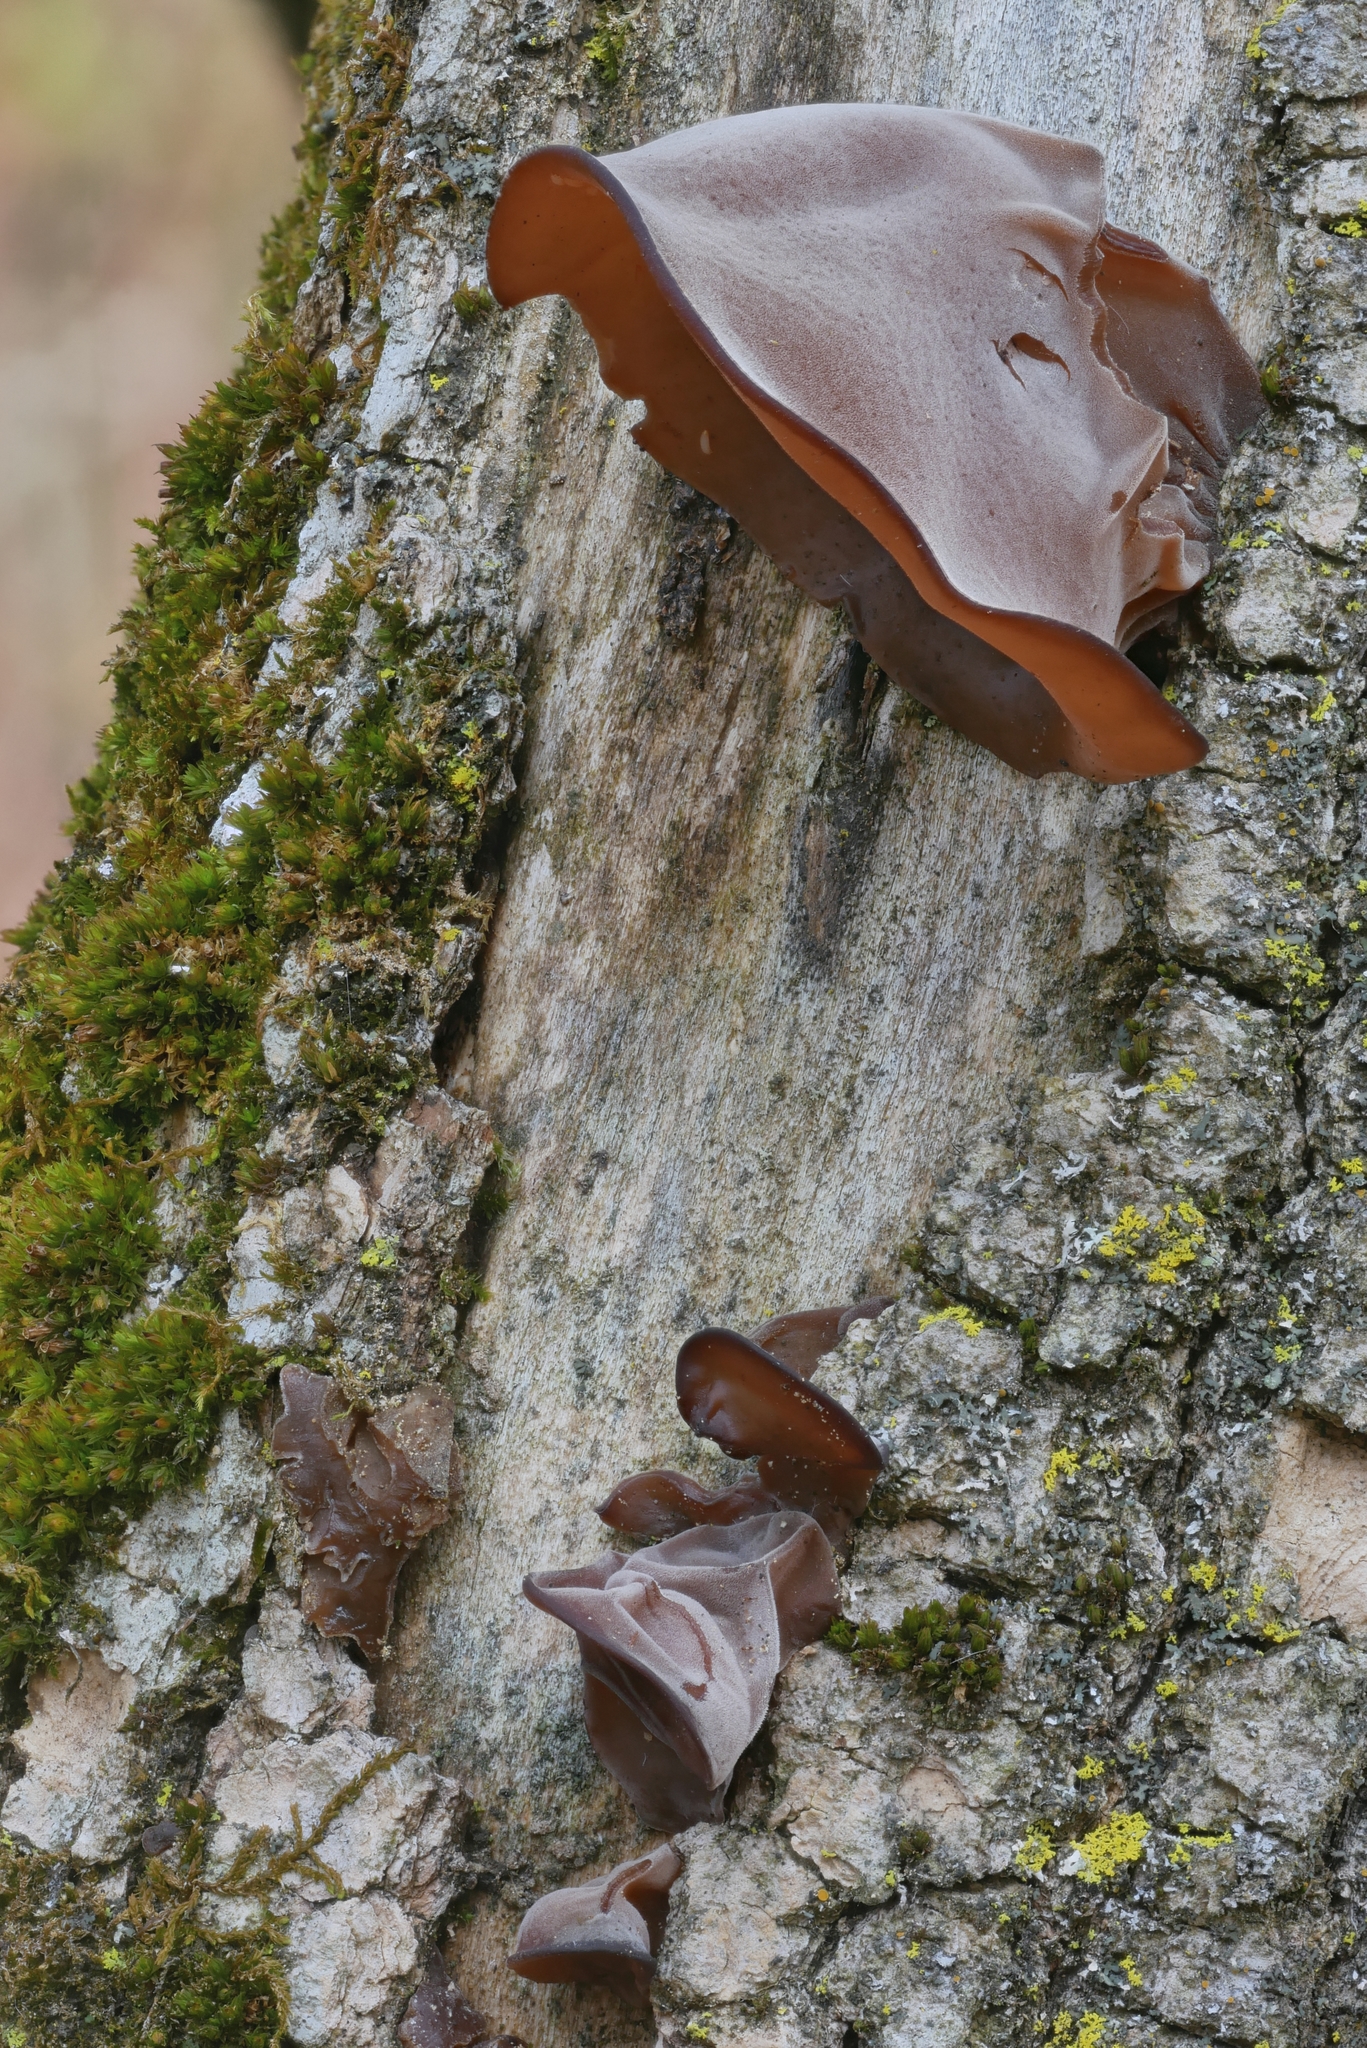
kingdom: Fungi
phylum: Basidiomycota
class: Agaricomycetes
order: Auriculariales
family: Auriculariaceae
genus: Auricularia
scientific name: Auricularia angiospermarum
